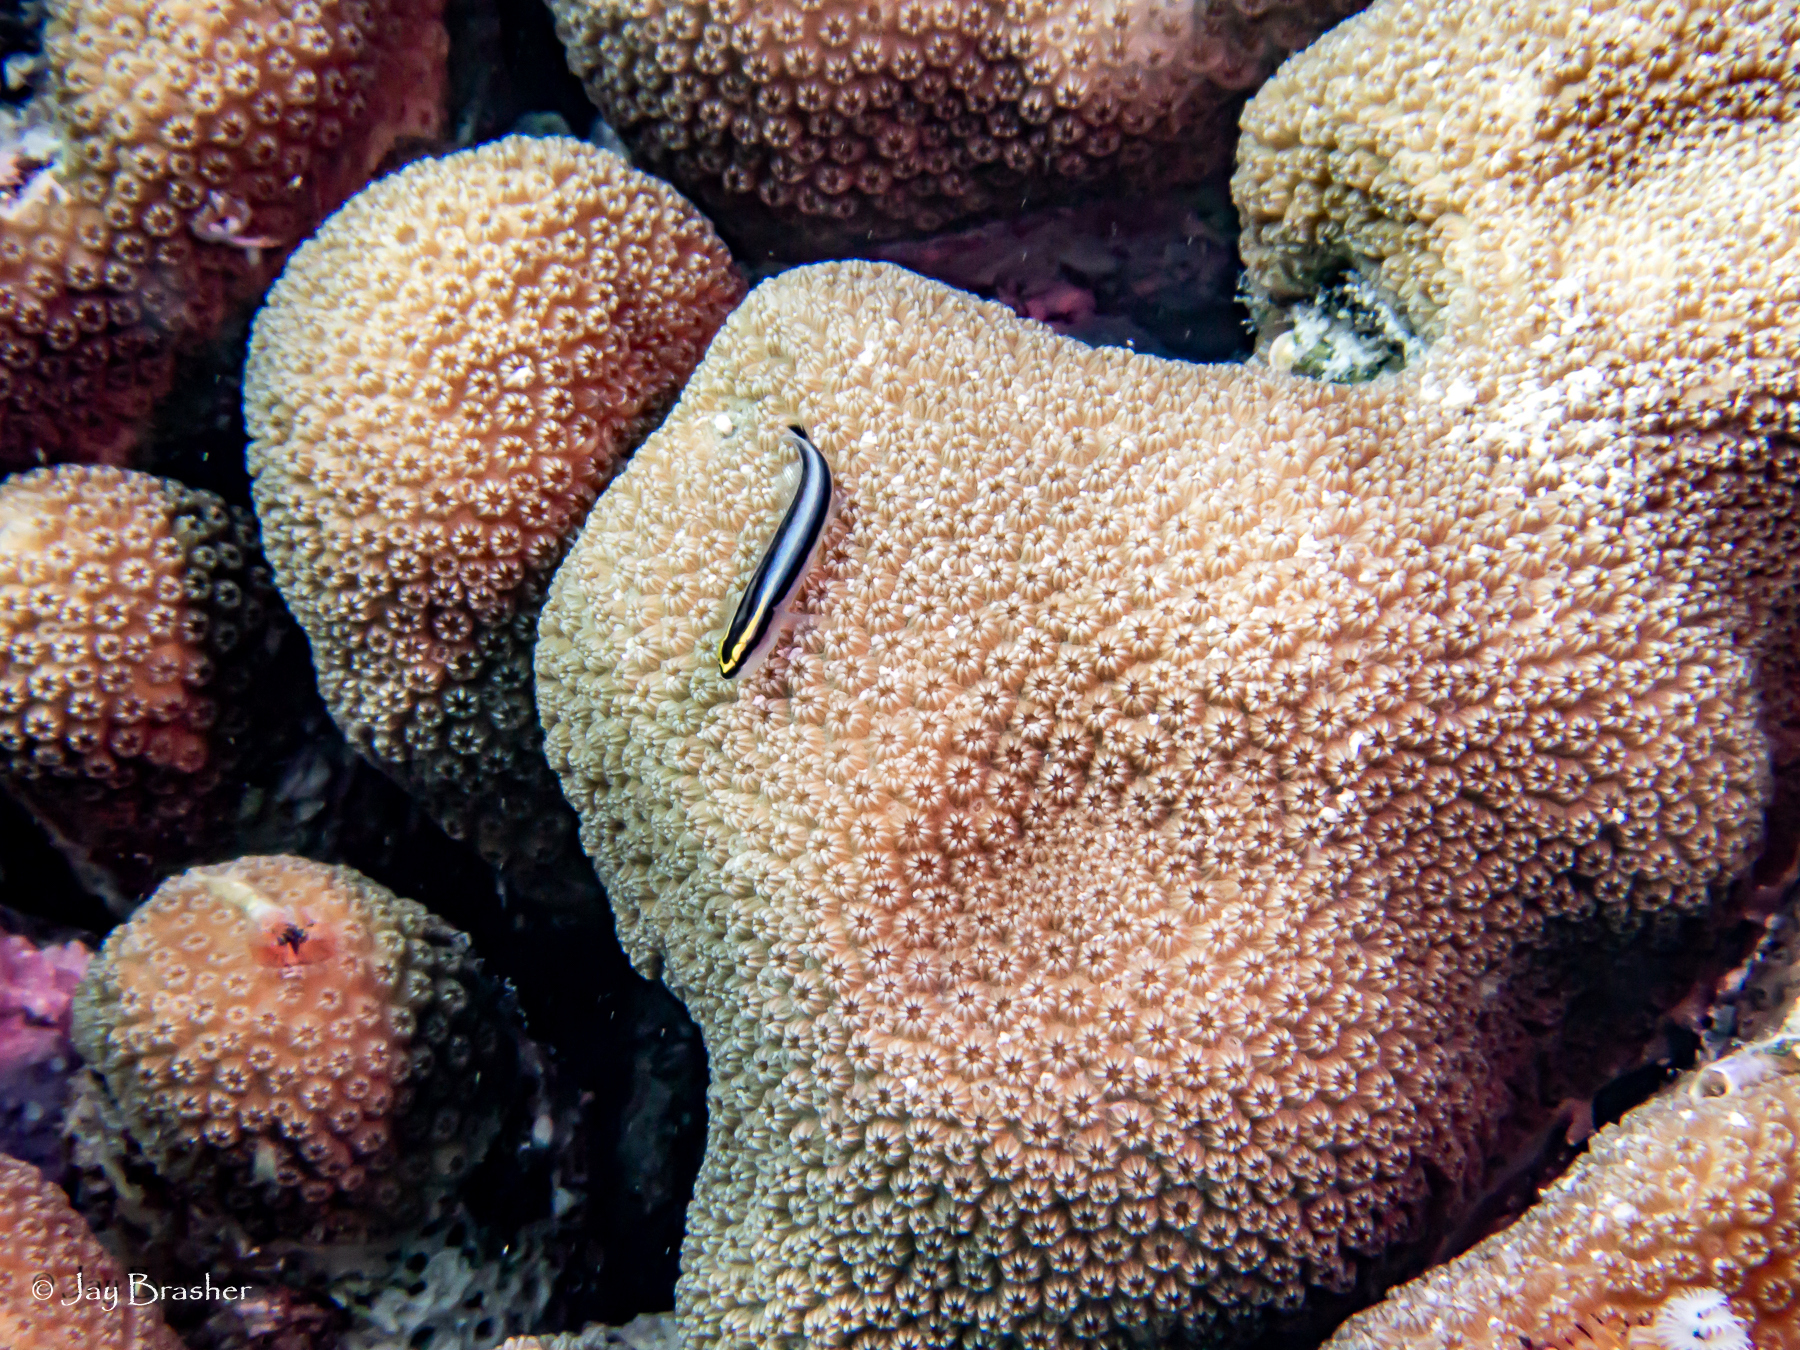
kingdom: Animalia
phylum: Chordata
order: Perciformes
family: Gobiidae
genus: Elacatinus
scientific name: Elacatinus evelynae
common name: Sharknose goby
